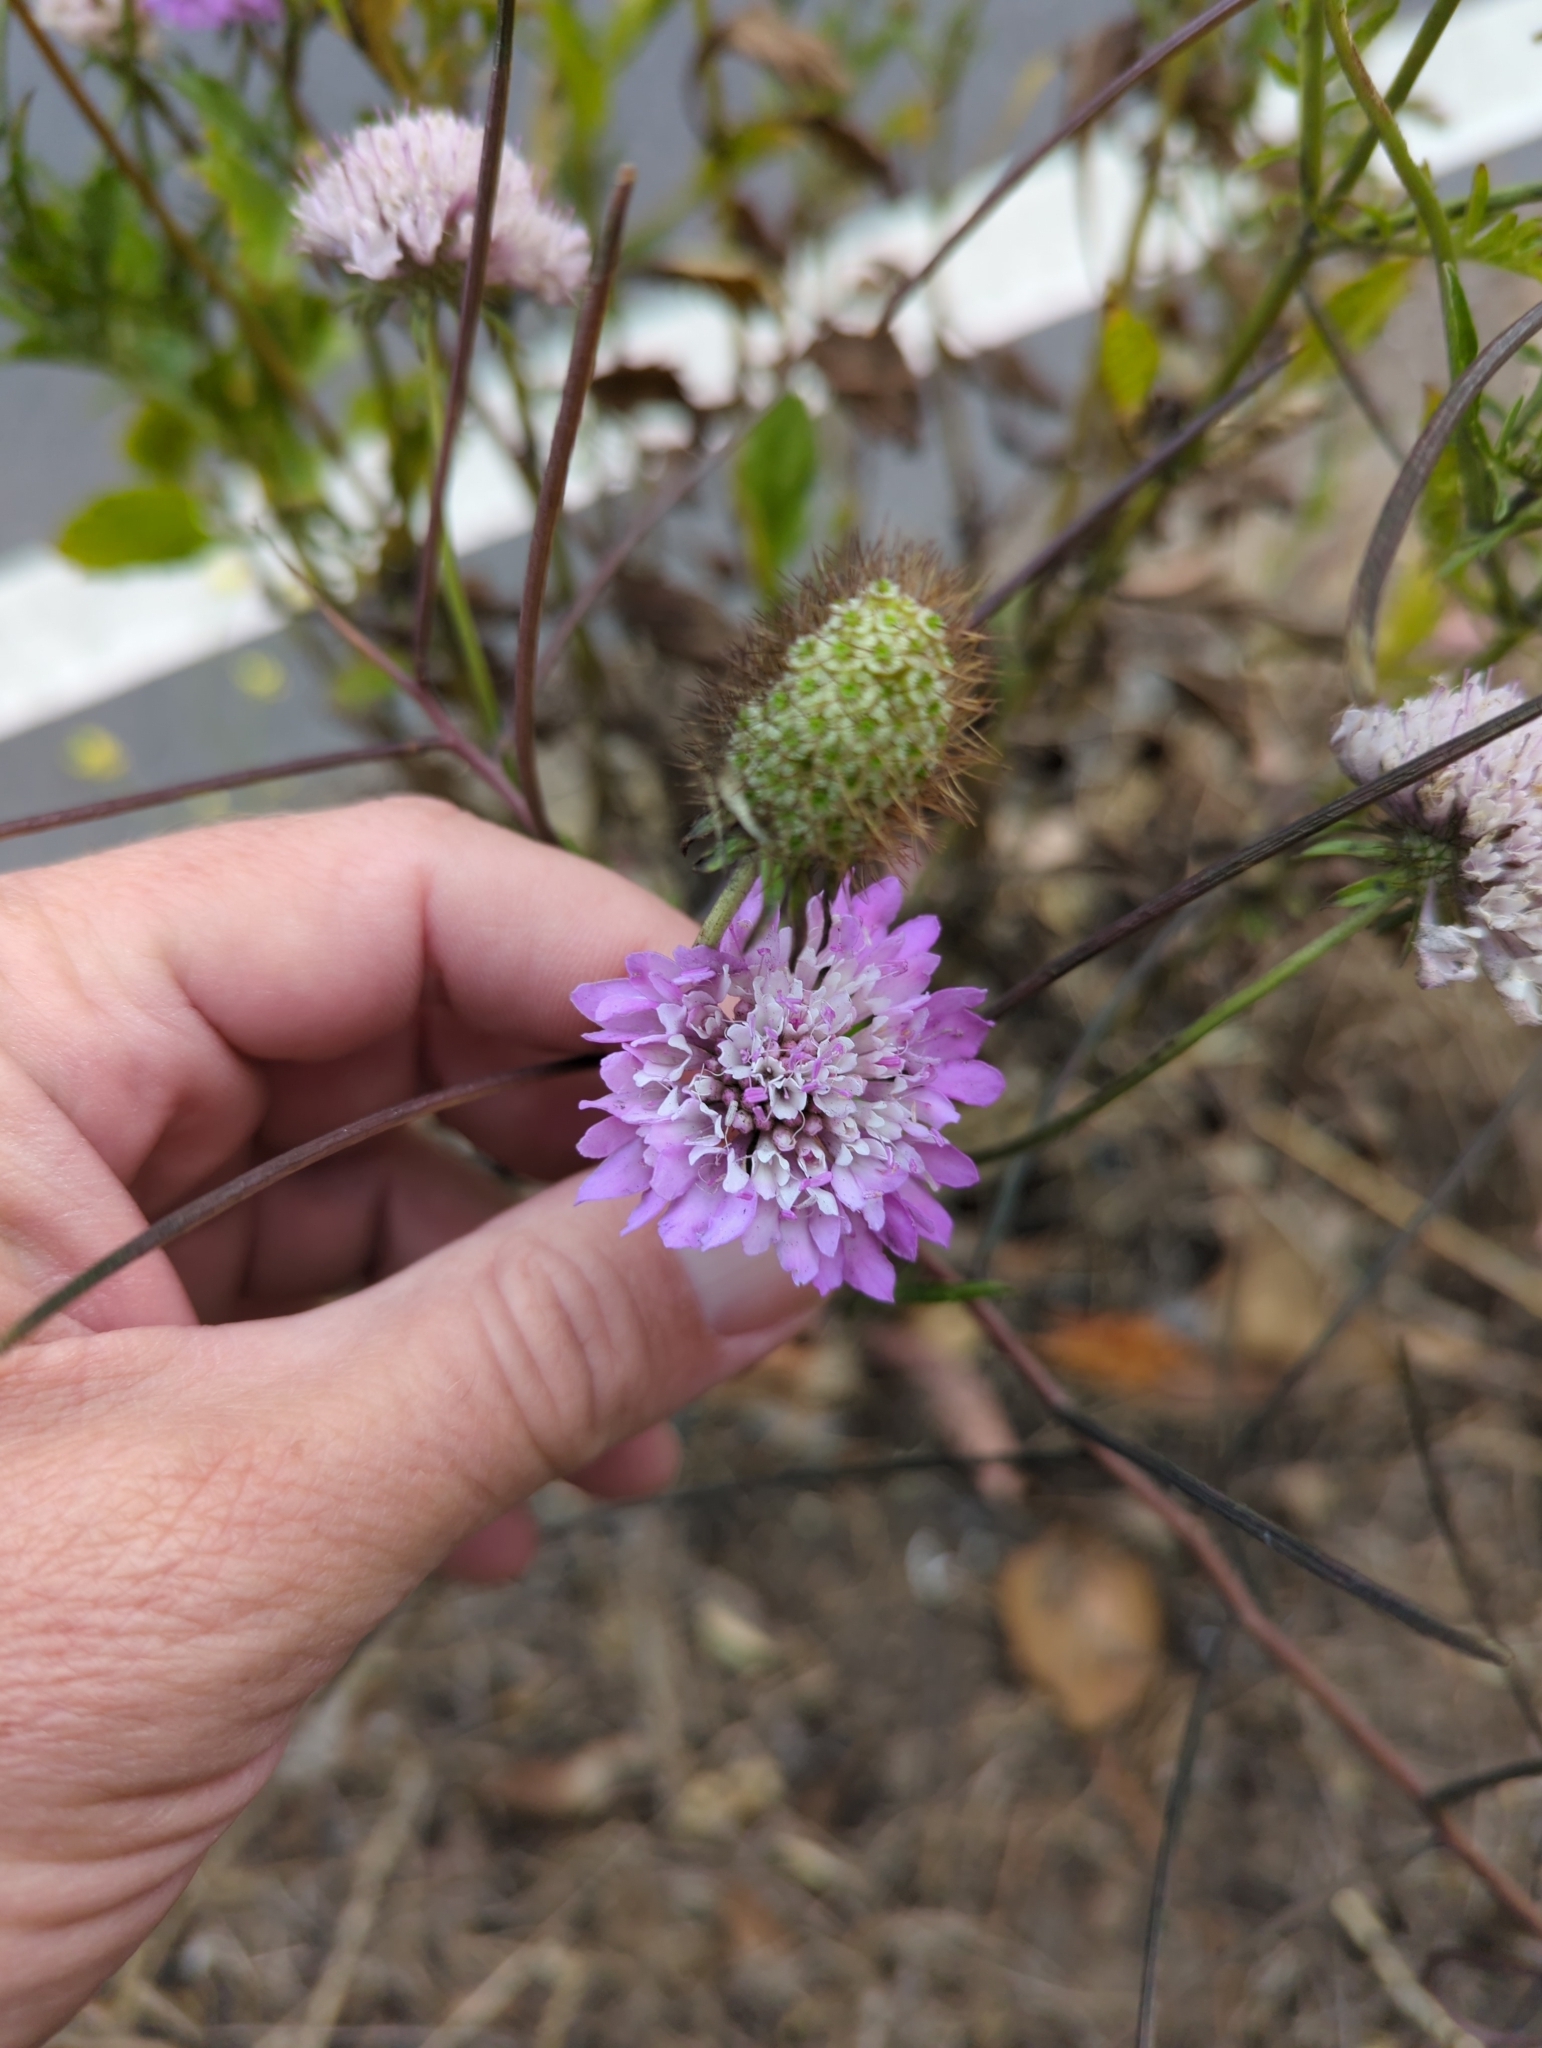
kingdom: Plantae
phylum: Tracheophyta
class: Magnoliopsida
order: Dipsacales
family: Caprifoliaceae
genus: Sixalix
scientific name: Sixalix atropurpurea
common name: Sweet scabious
